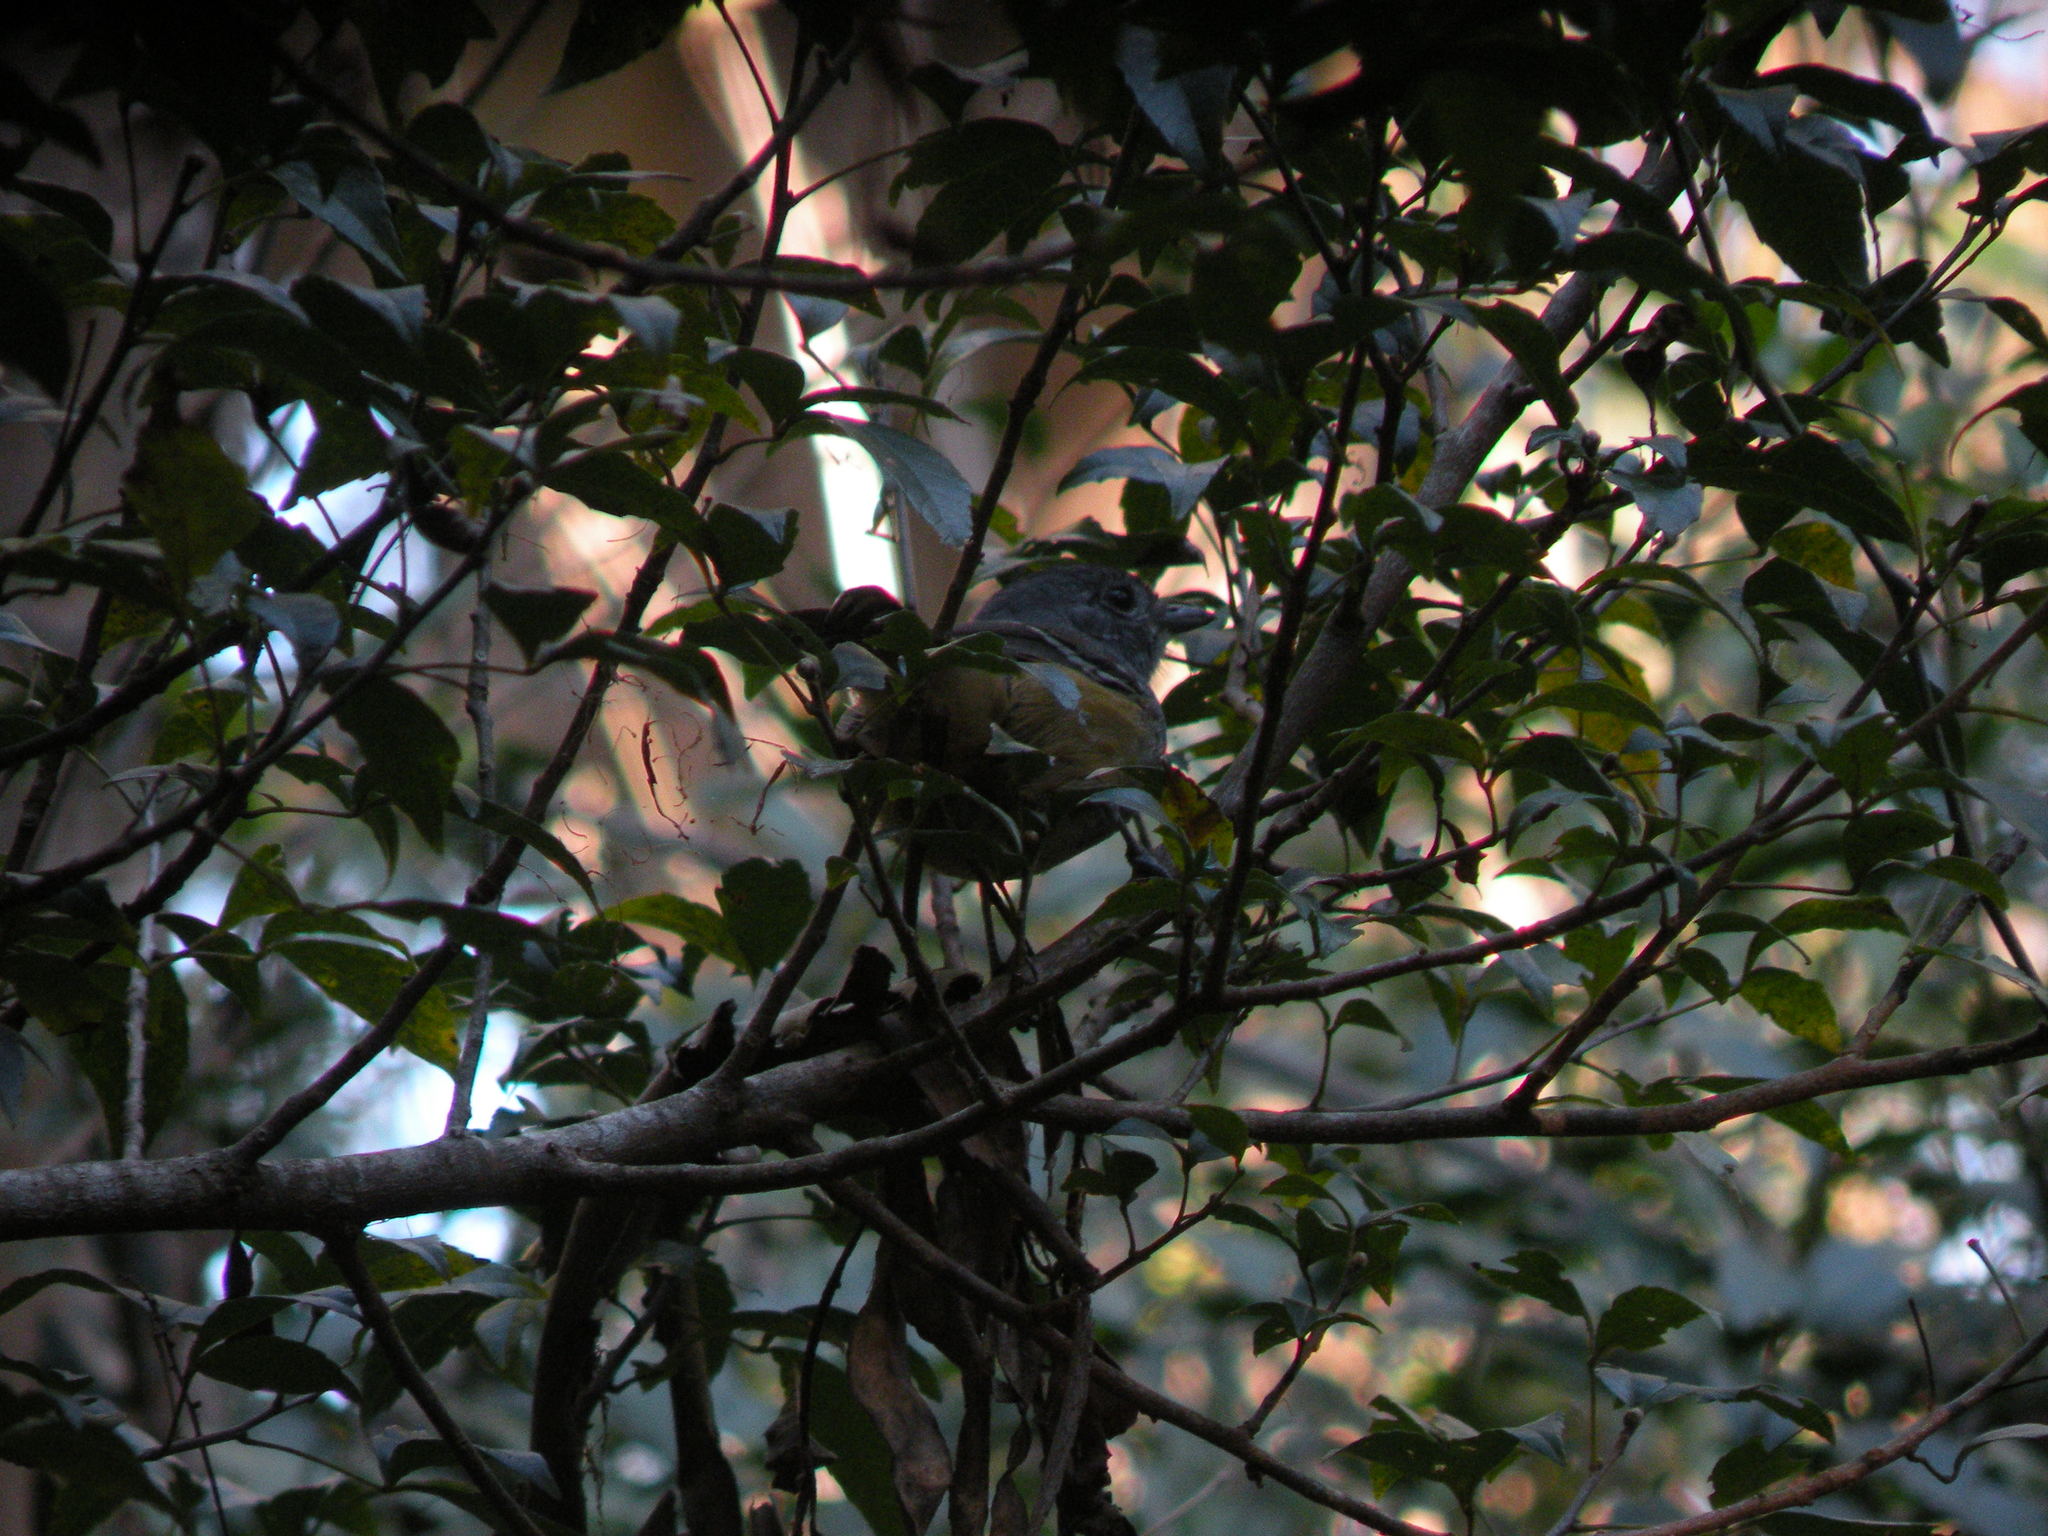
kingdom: Animalia
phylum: Chordata
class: Aves
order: Passeriformes
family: Thamnophilidae
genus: Thamnophilus
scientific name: Thamnophilus caerulescens
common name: Variable antshrike
